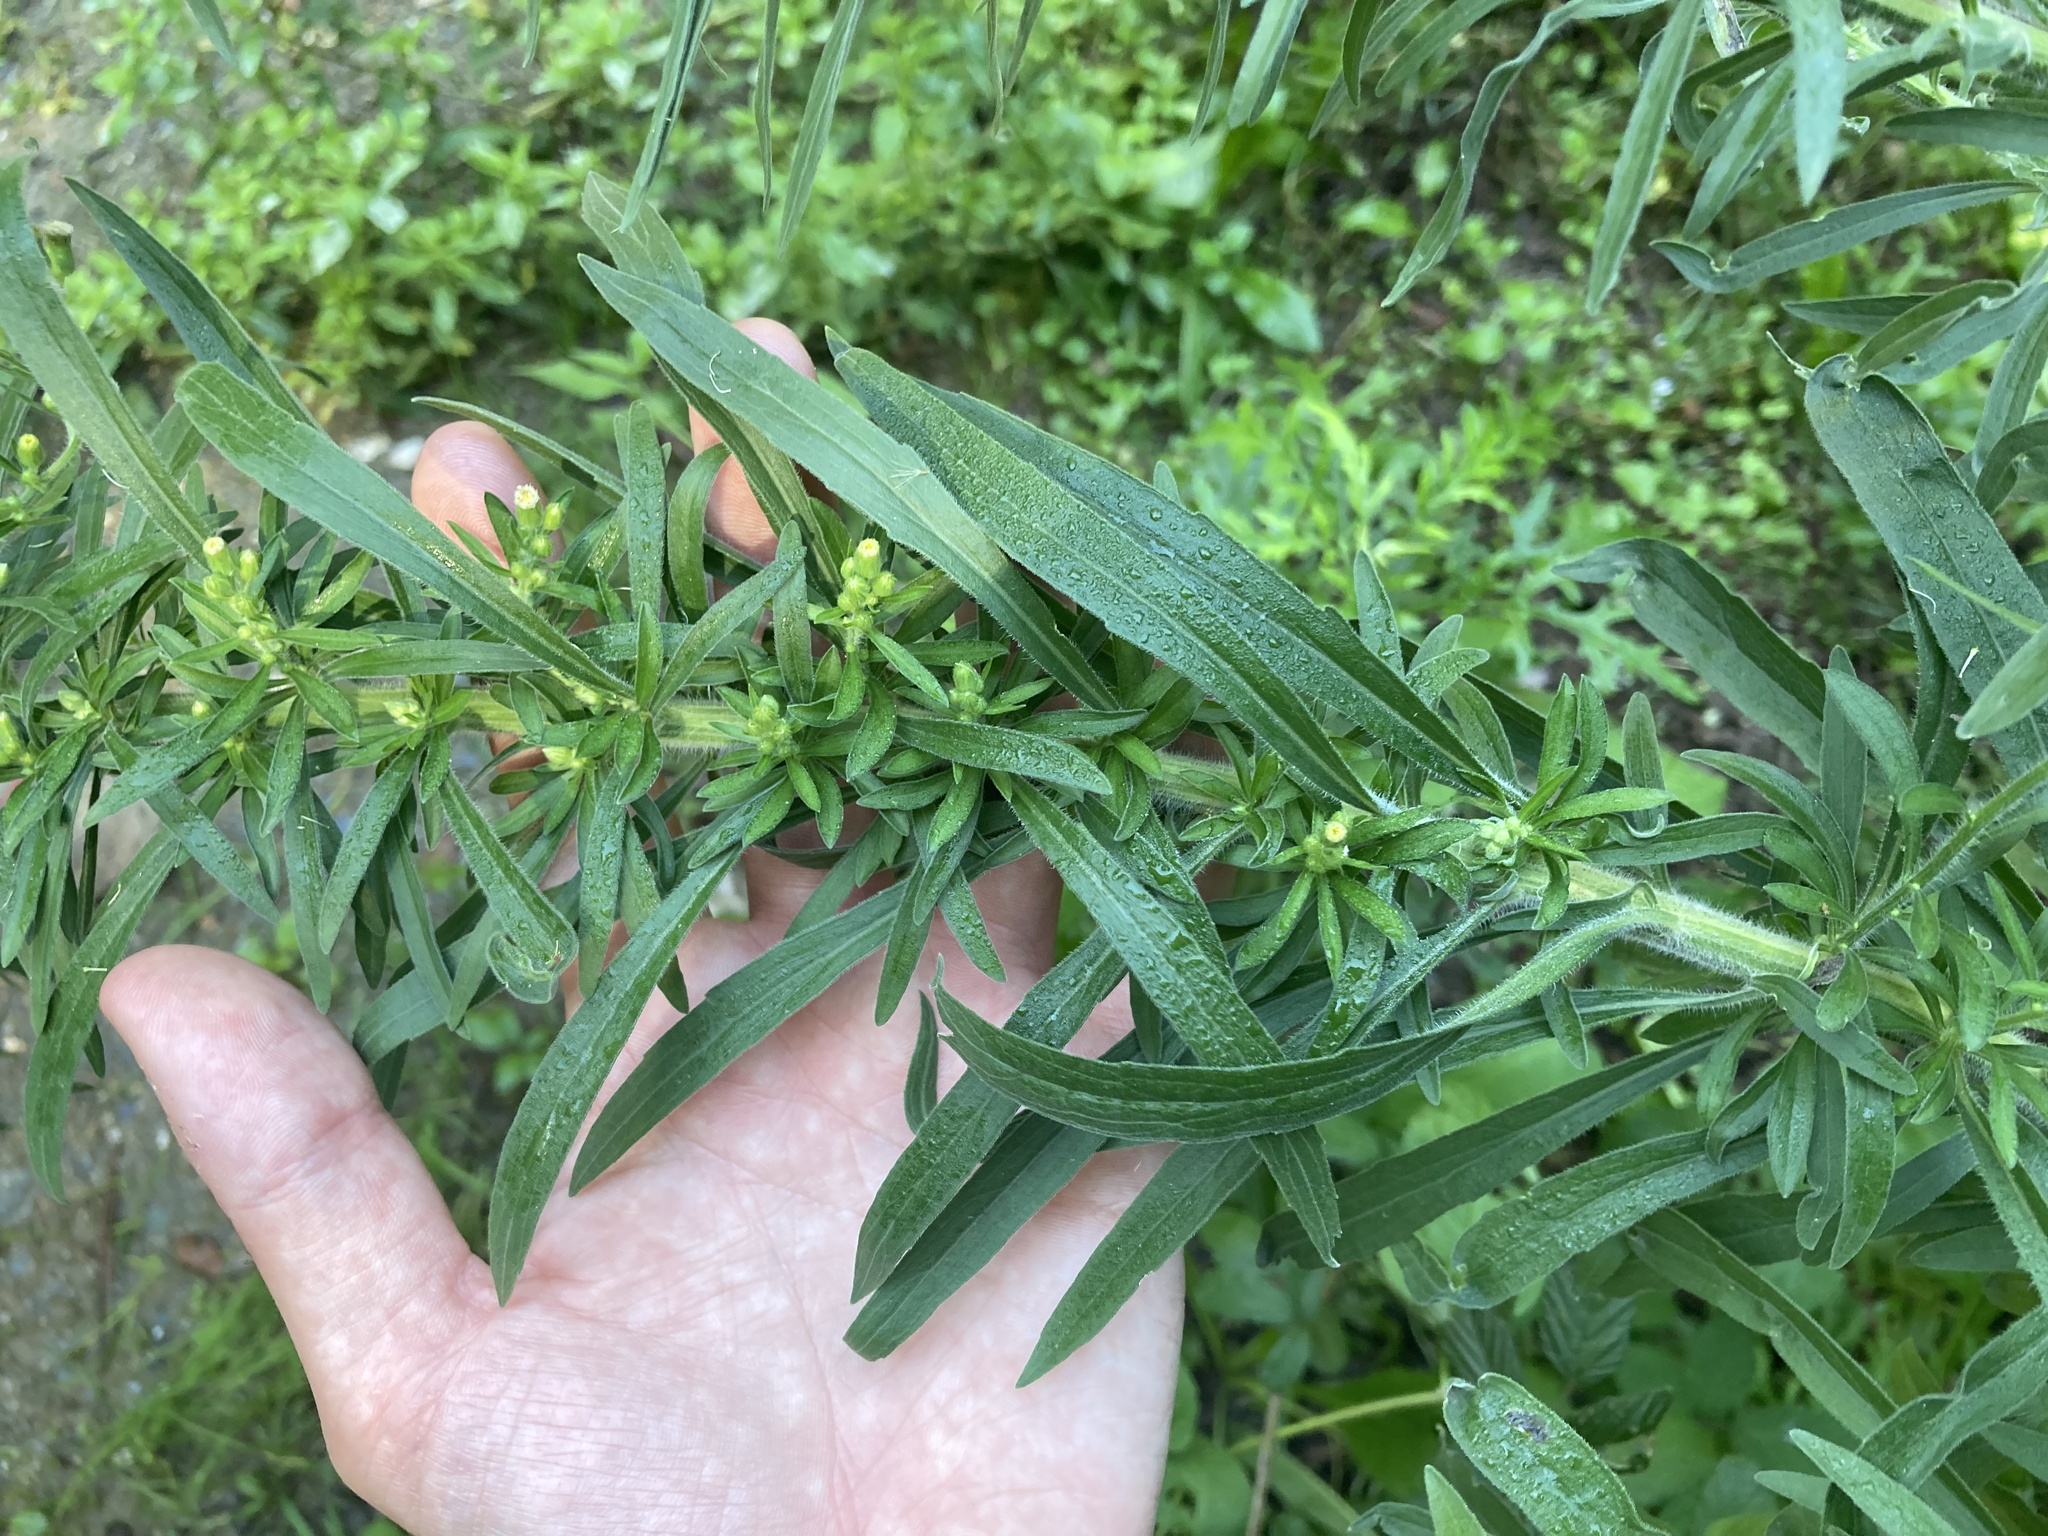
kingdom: Plantae
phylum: Tracheophyta
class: Magnoliopsida
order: Asterales
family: Asteraceae
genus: Erigeron
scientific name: Erigeron sumatrensis
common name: Daisy
